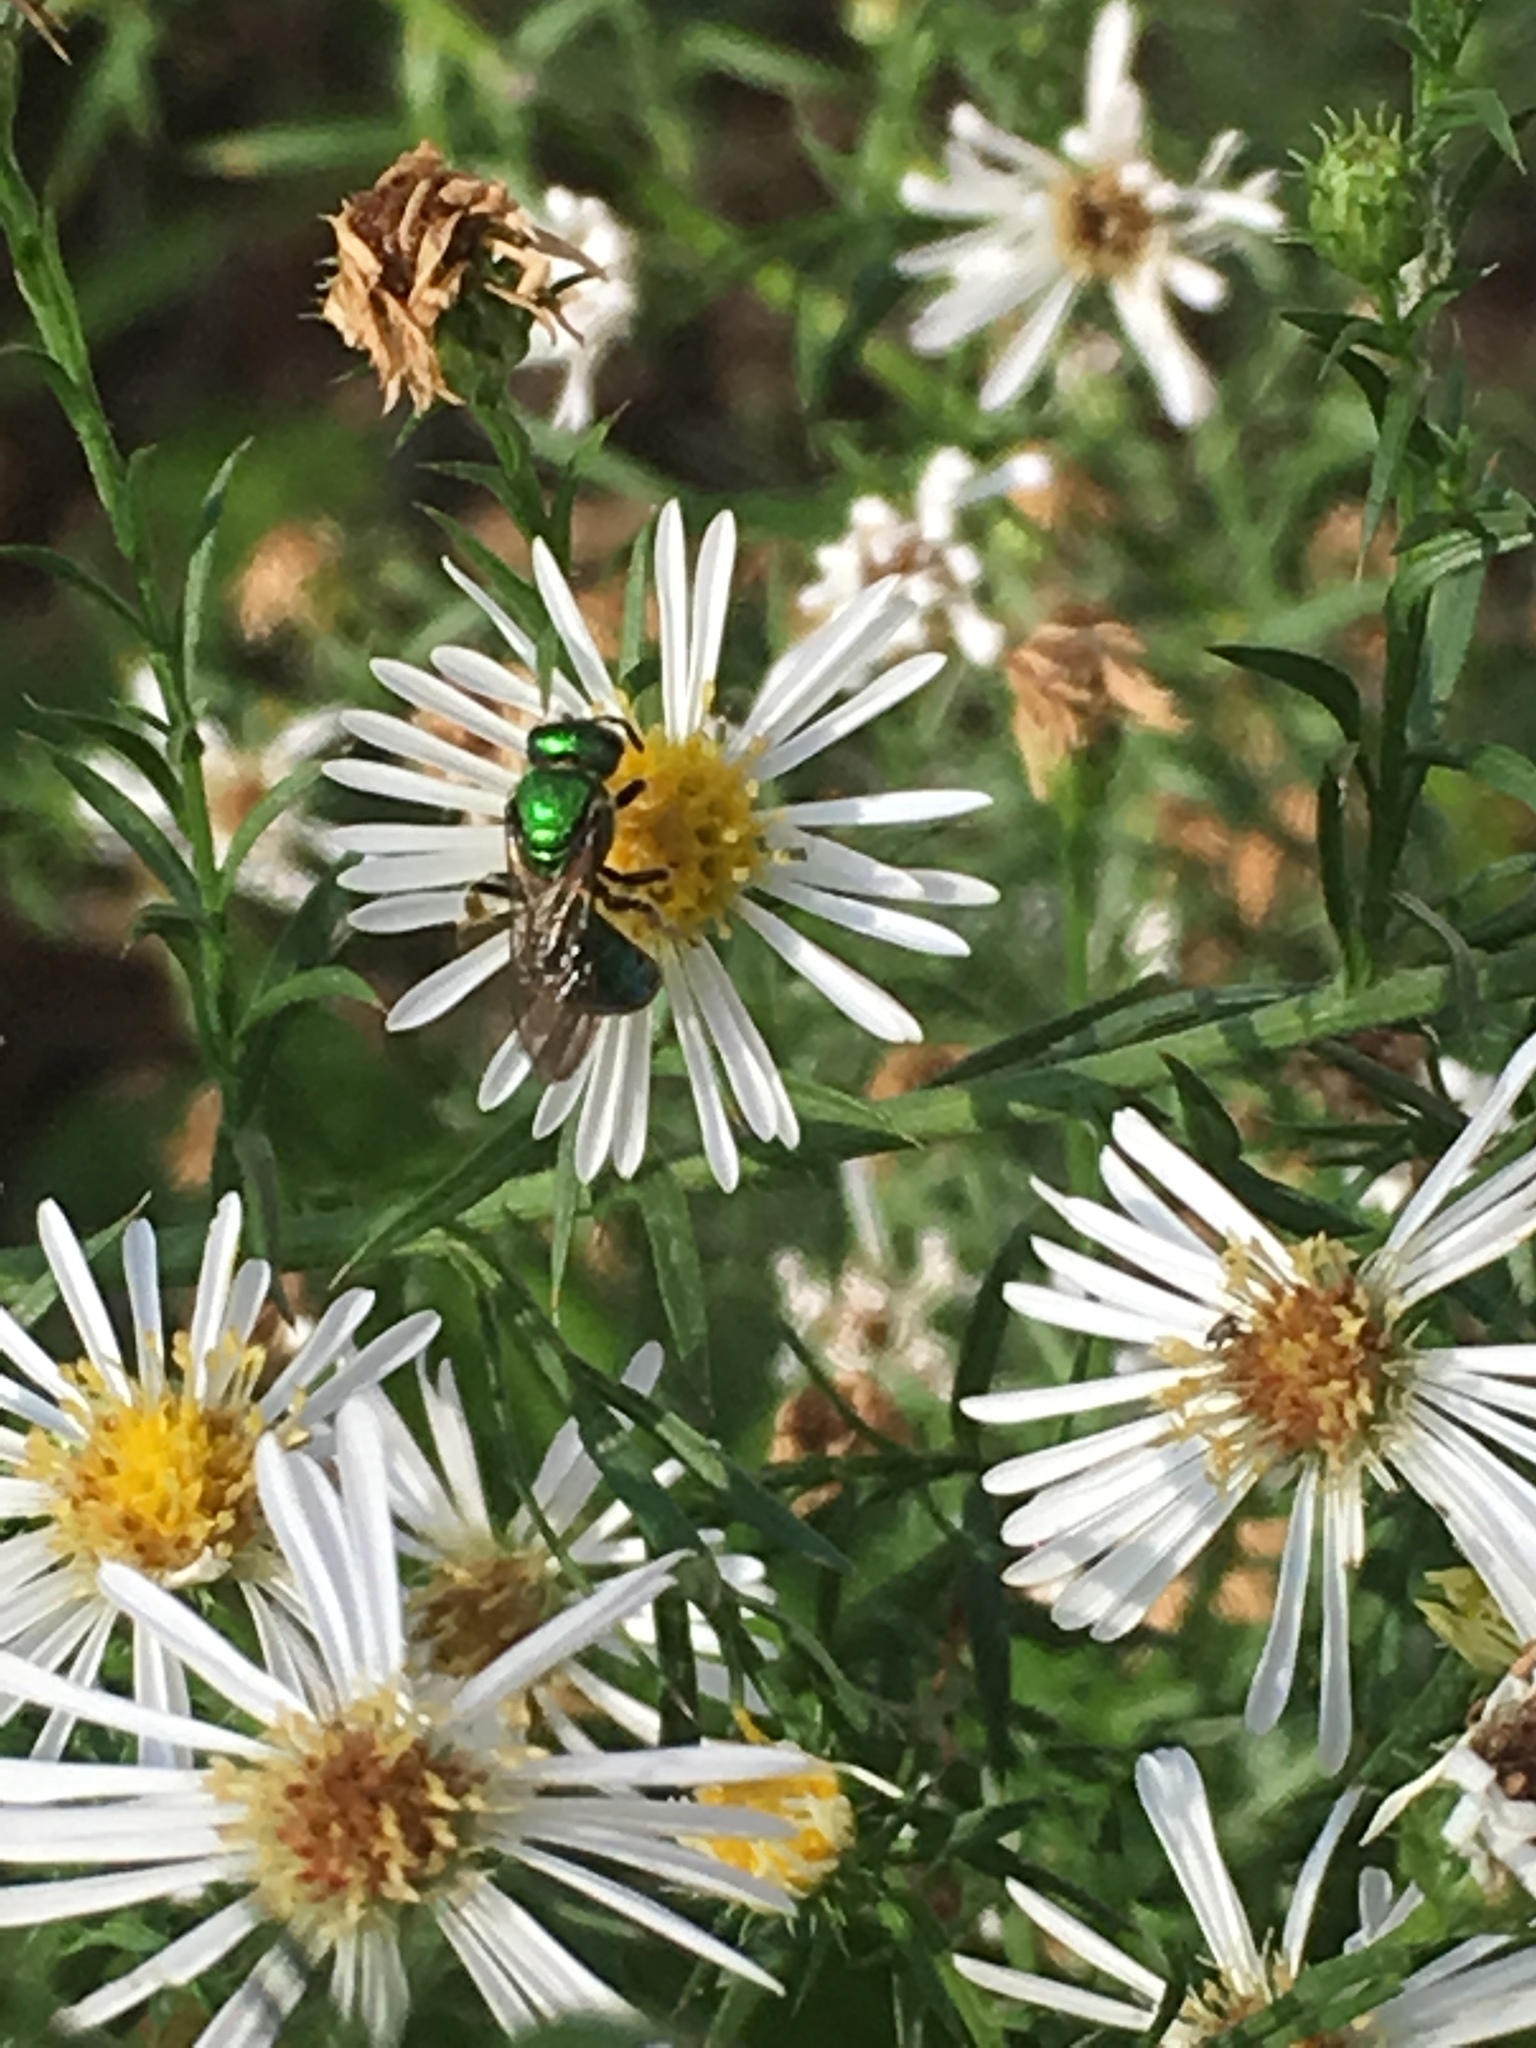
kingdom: Animalia
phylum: Arthropoda
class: Insecta
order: Hymenoptera
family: Halictidae
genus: Augochlora
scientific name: Augochlora pura
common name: Pure green sweat bee
